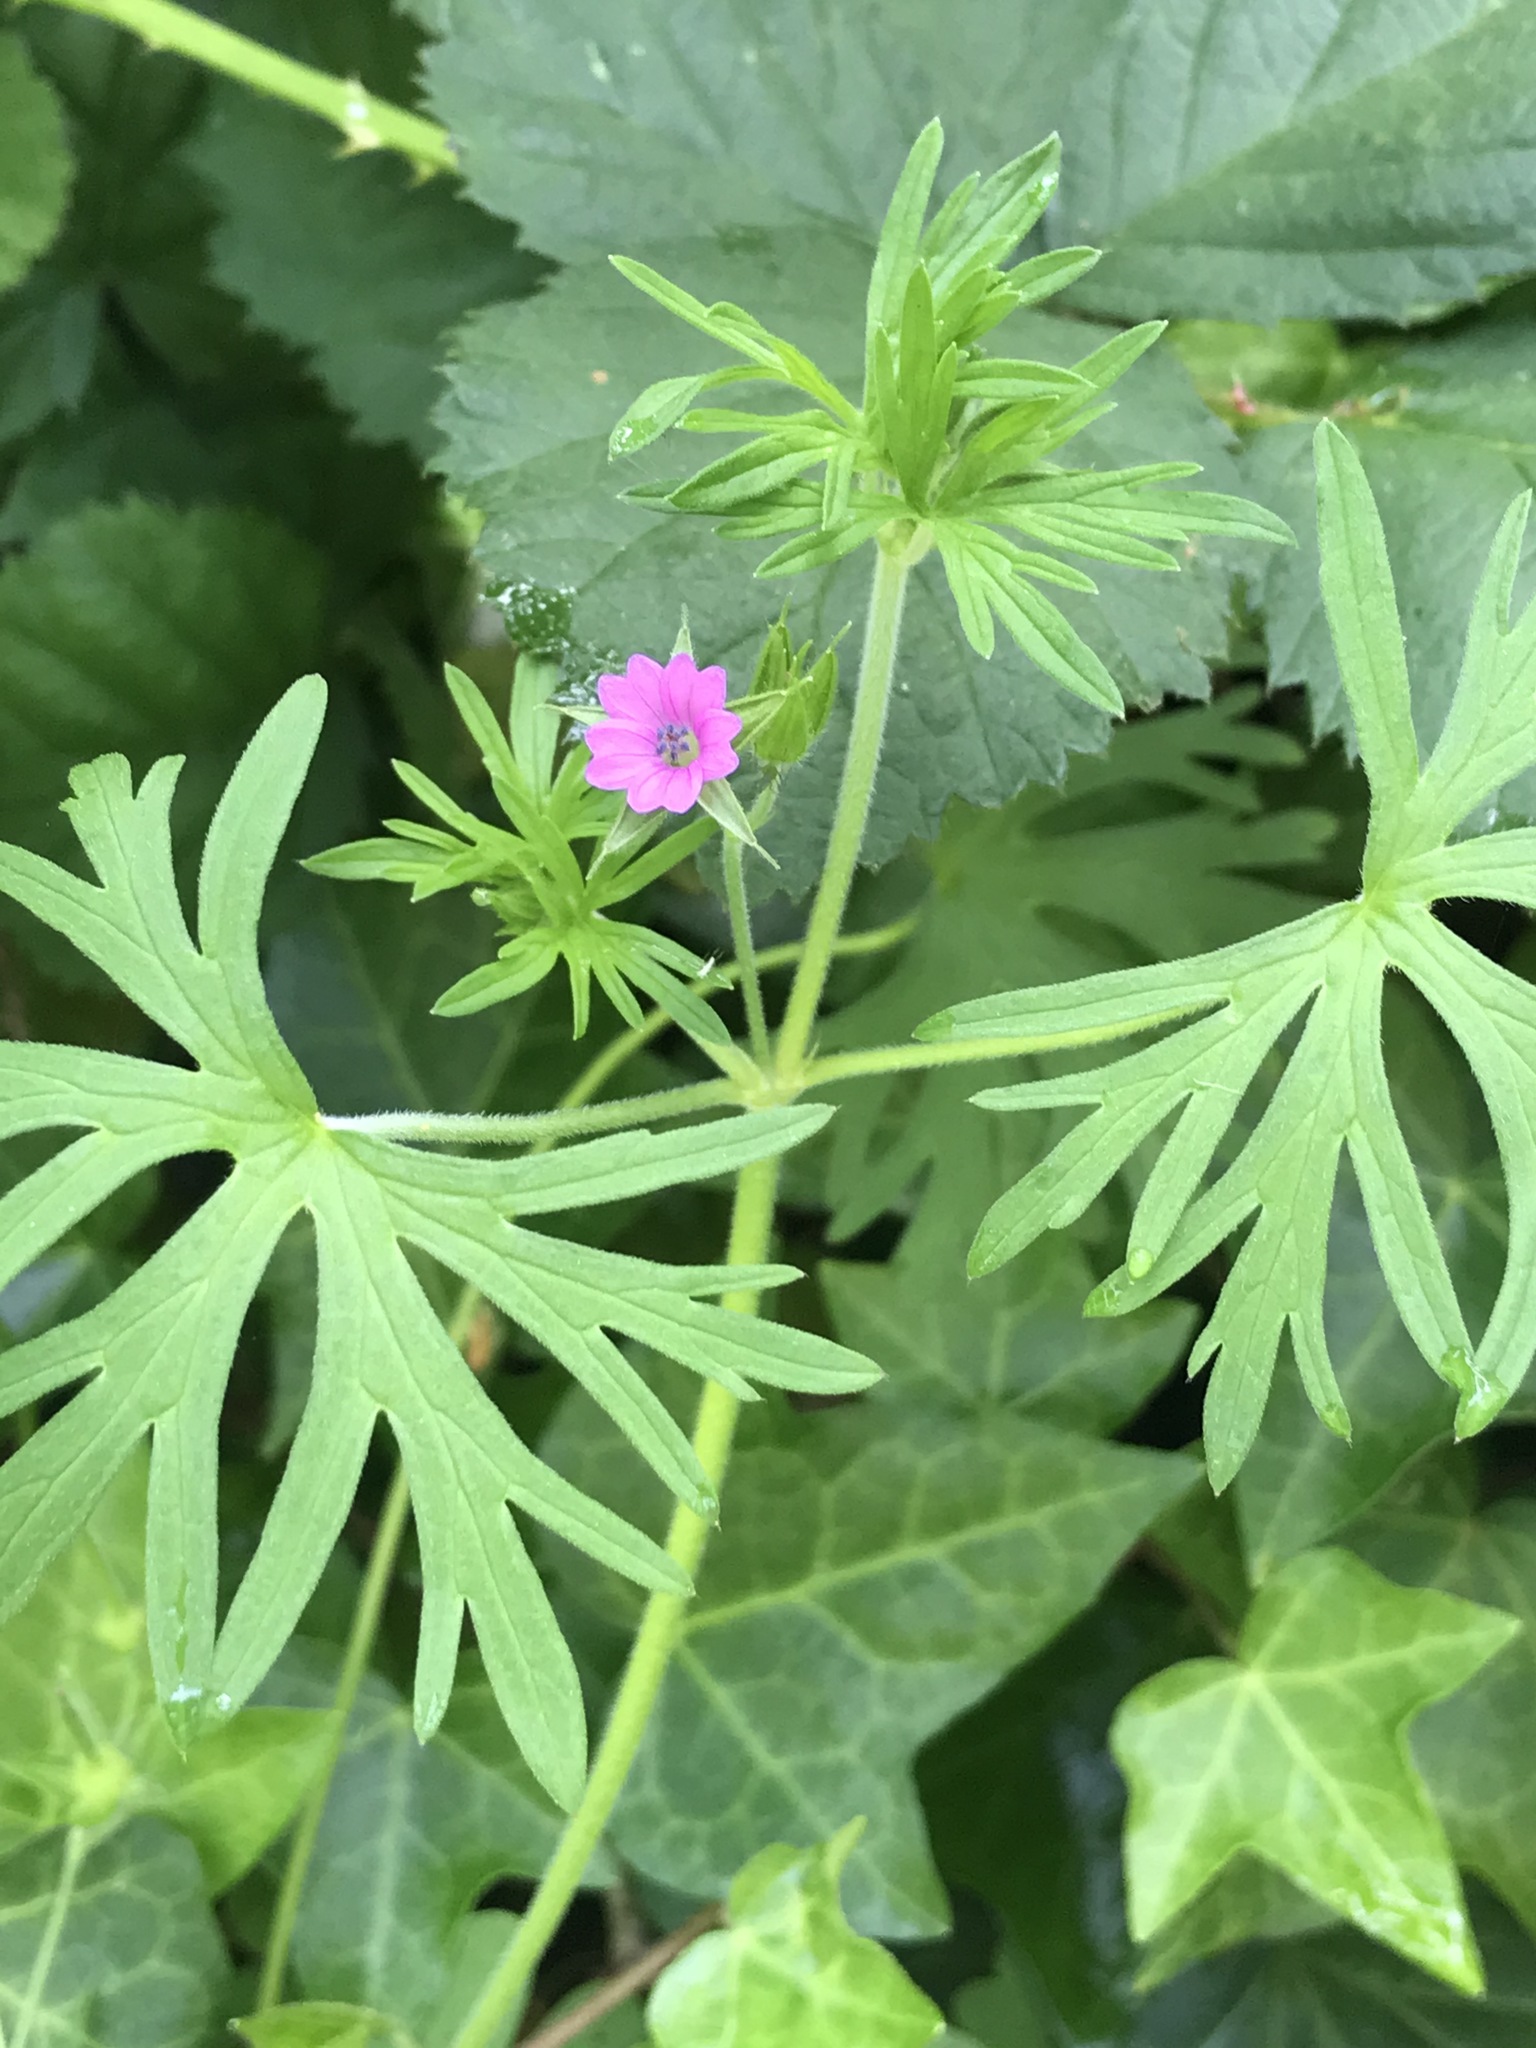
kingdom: Plantae
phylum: Tracheophyta
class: Magnoliopsida
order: Geraniales
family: Geraniaceae
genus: Geranium
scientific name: Geranium dissectum
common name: Cut-leaved crane's-bill
